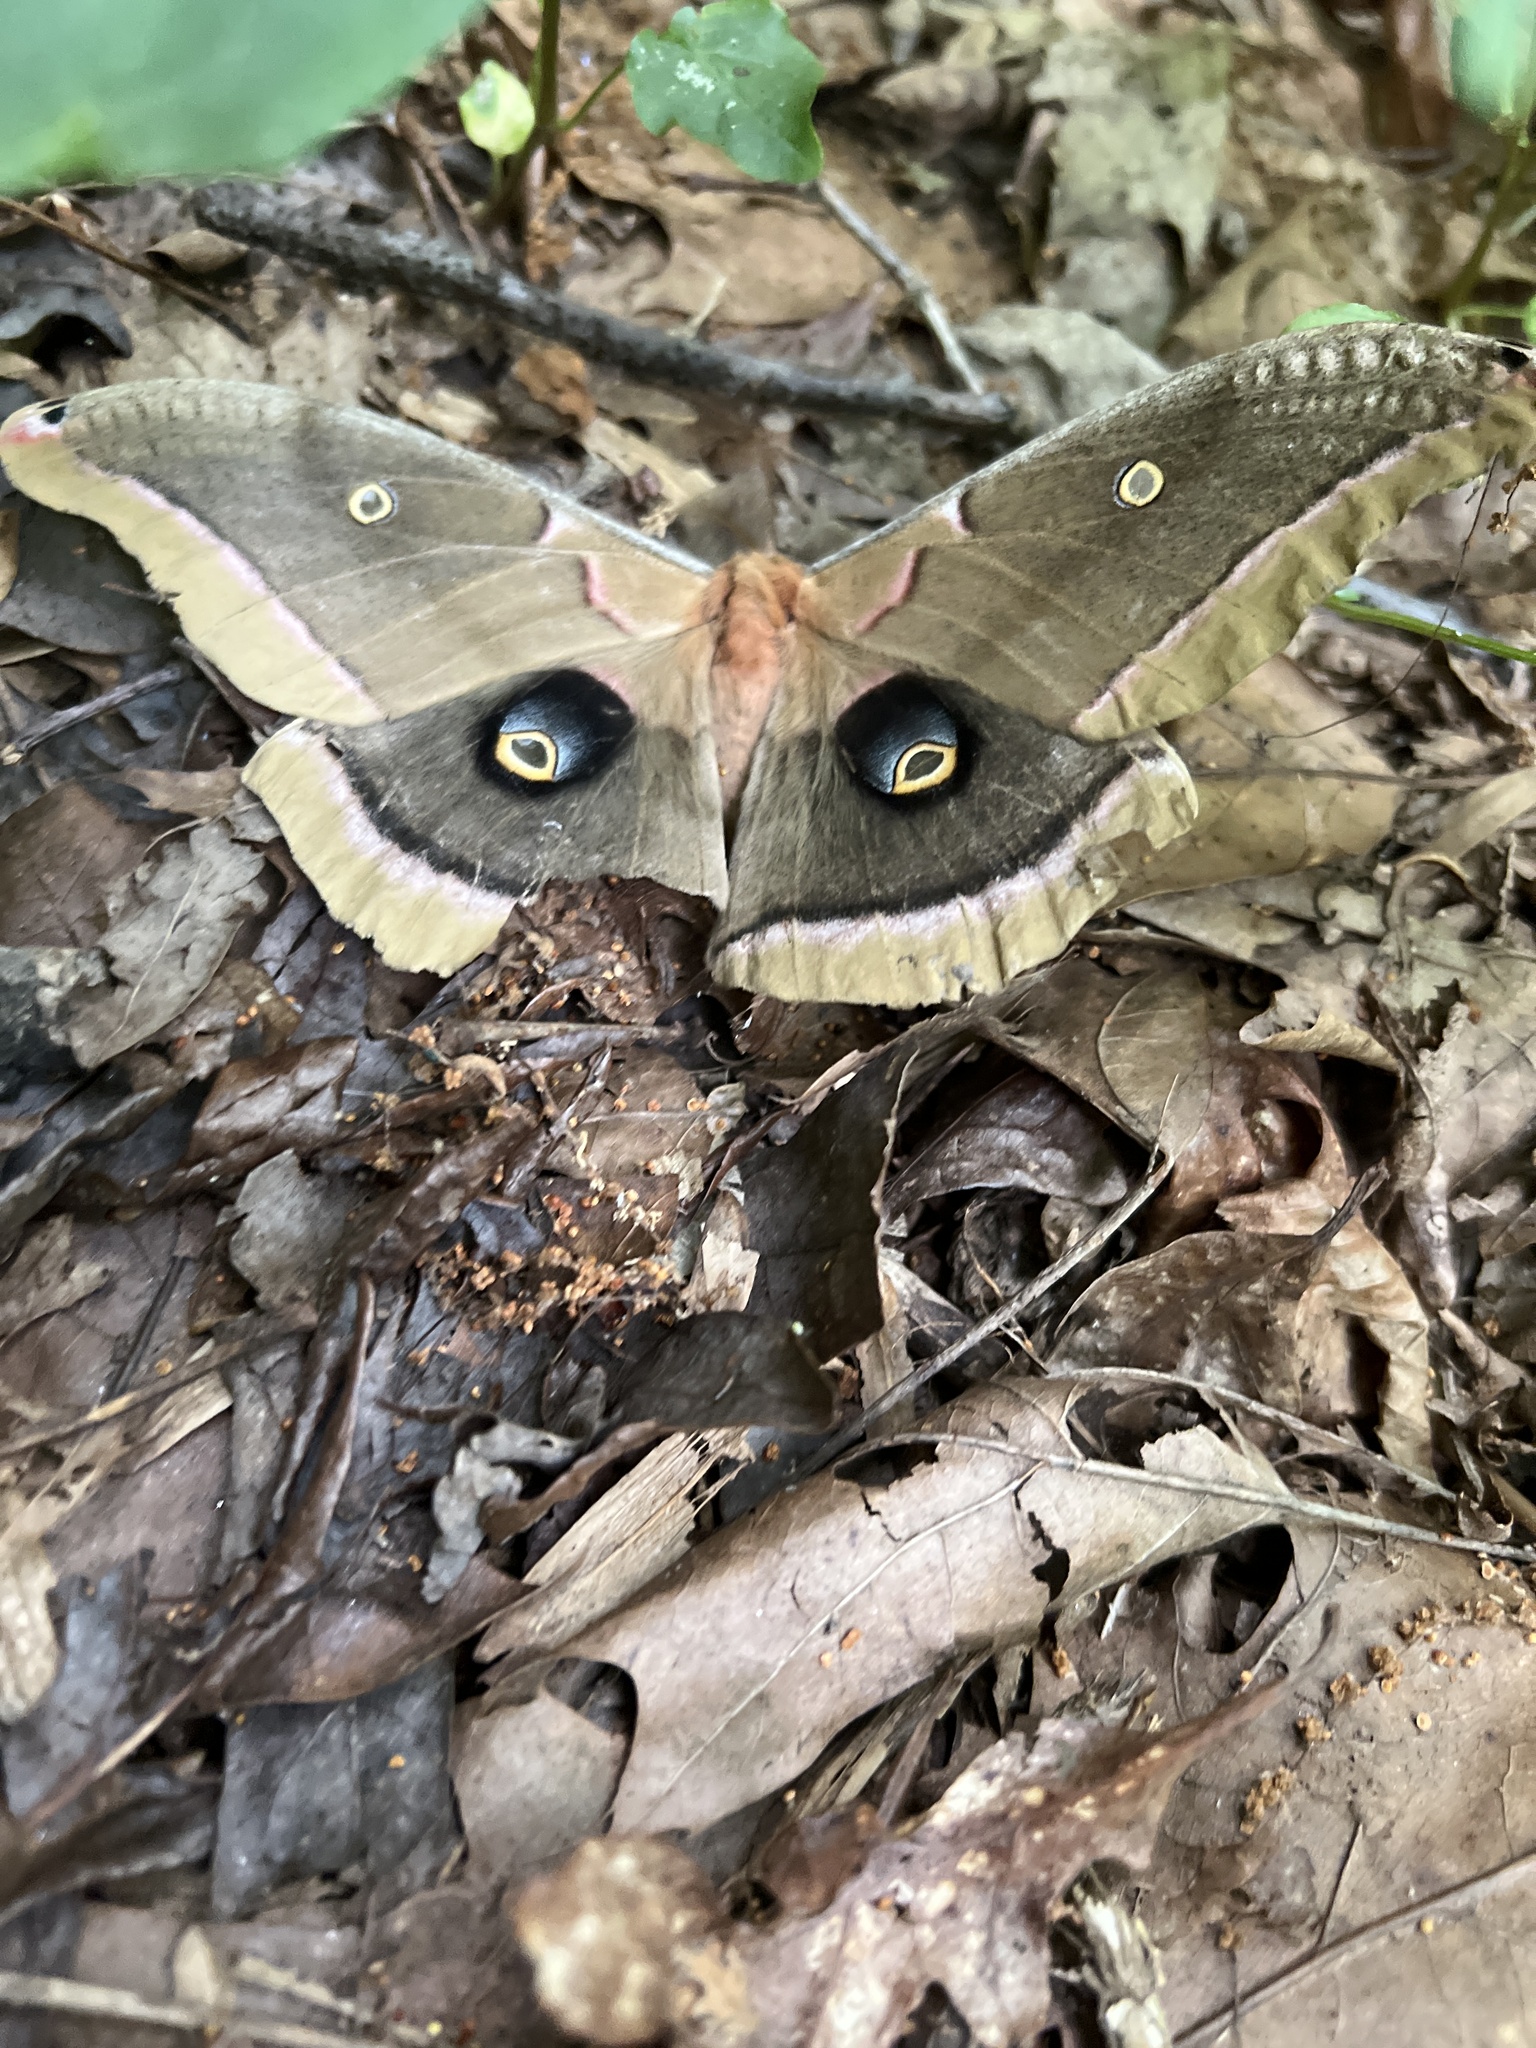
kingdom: Animalia
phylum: Arthropoda
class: Insecta
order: Lepidoptera
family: Saturniidae
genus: Antheraea
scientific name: Antheraea polyphemus
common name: Polyphemus moth
